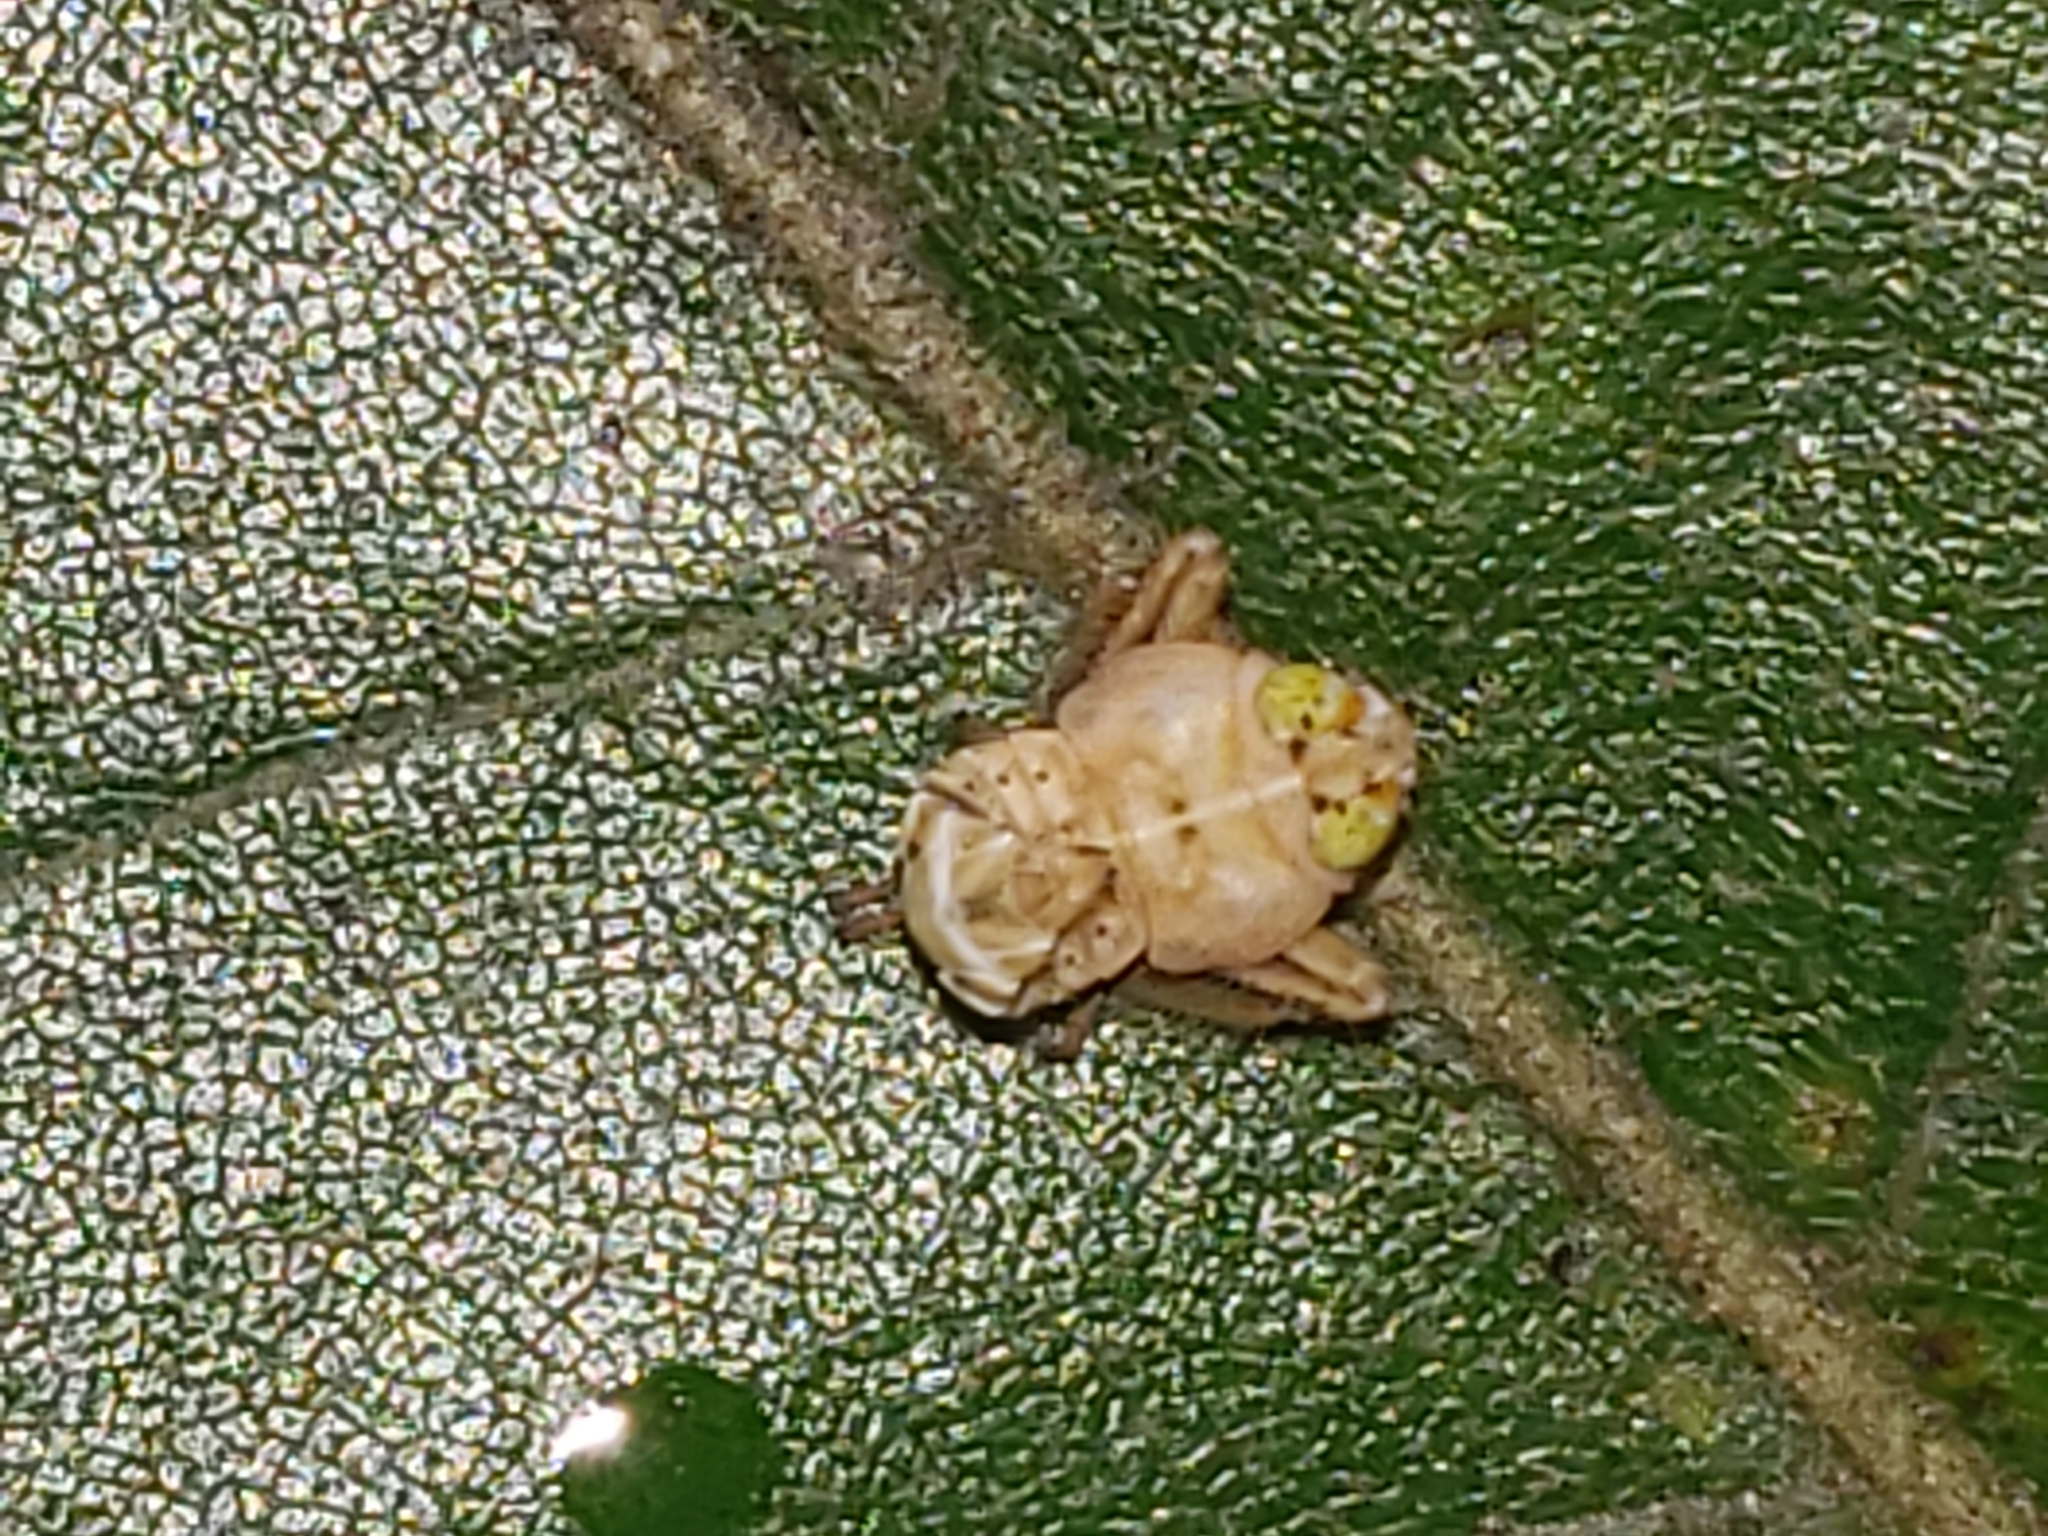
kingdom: Animalia
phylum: Arthropoda
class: Insecta
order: Hemiptera
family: Cicadellidae
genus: Jikradia
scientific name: Jikradia olitoria
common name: Coppery leafhopper
